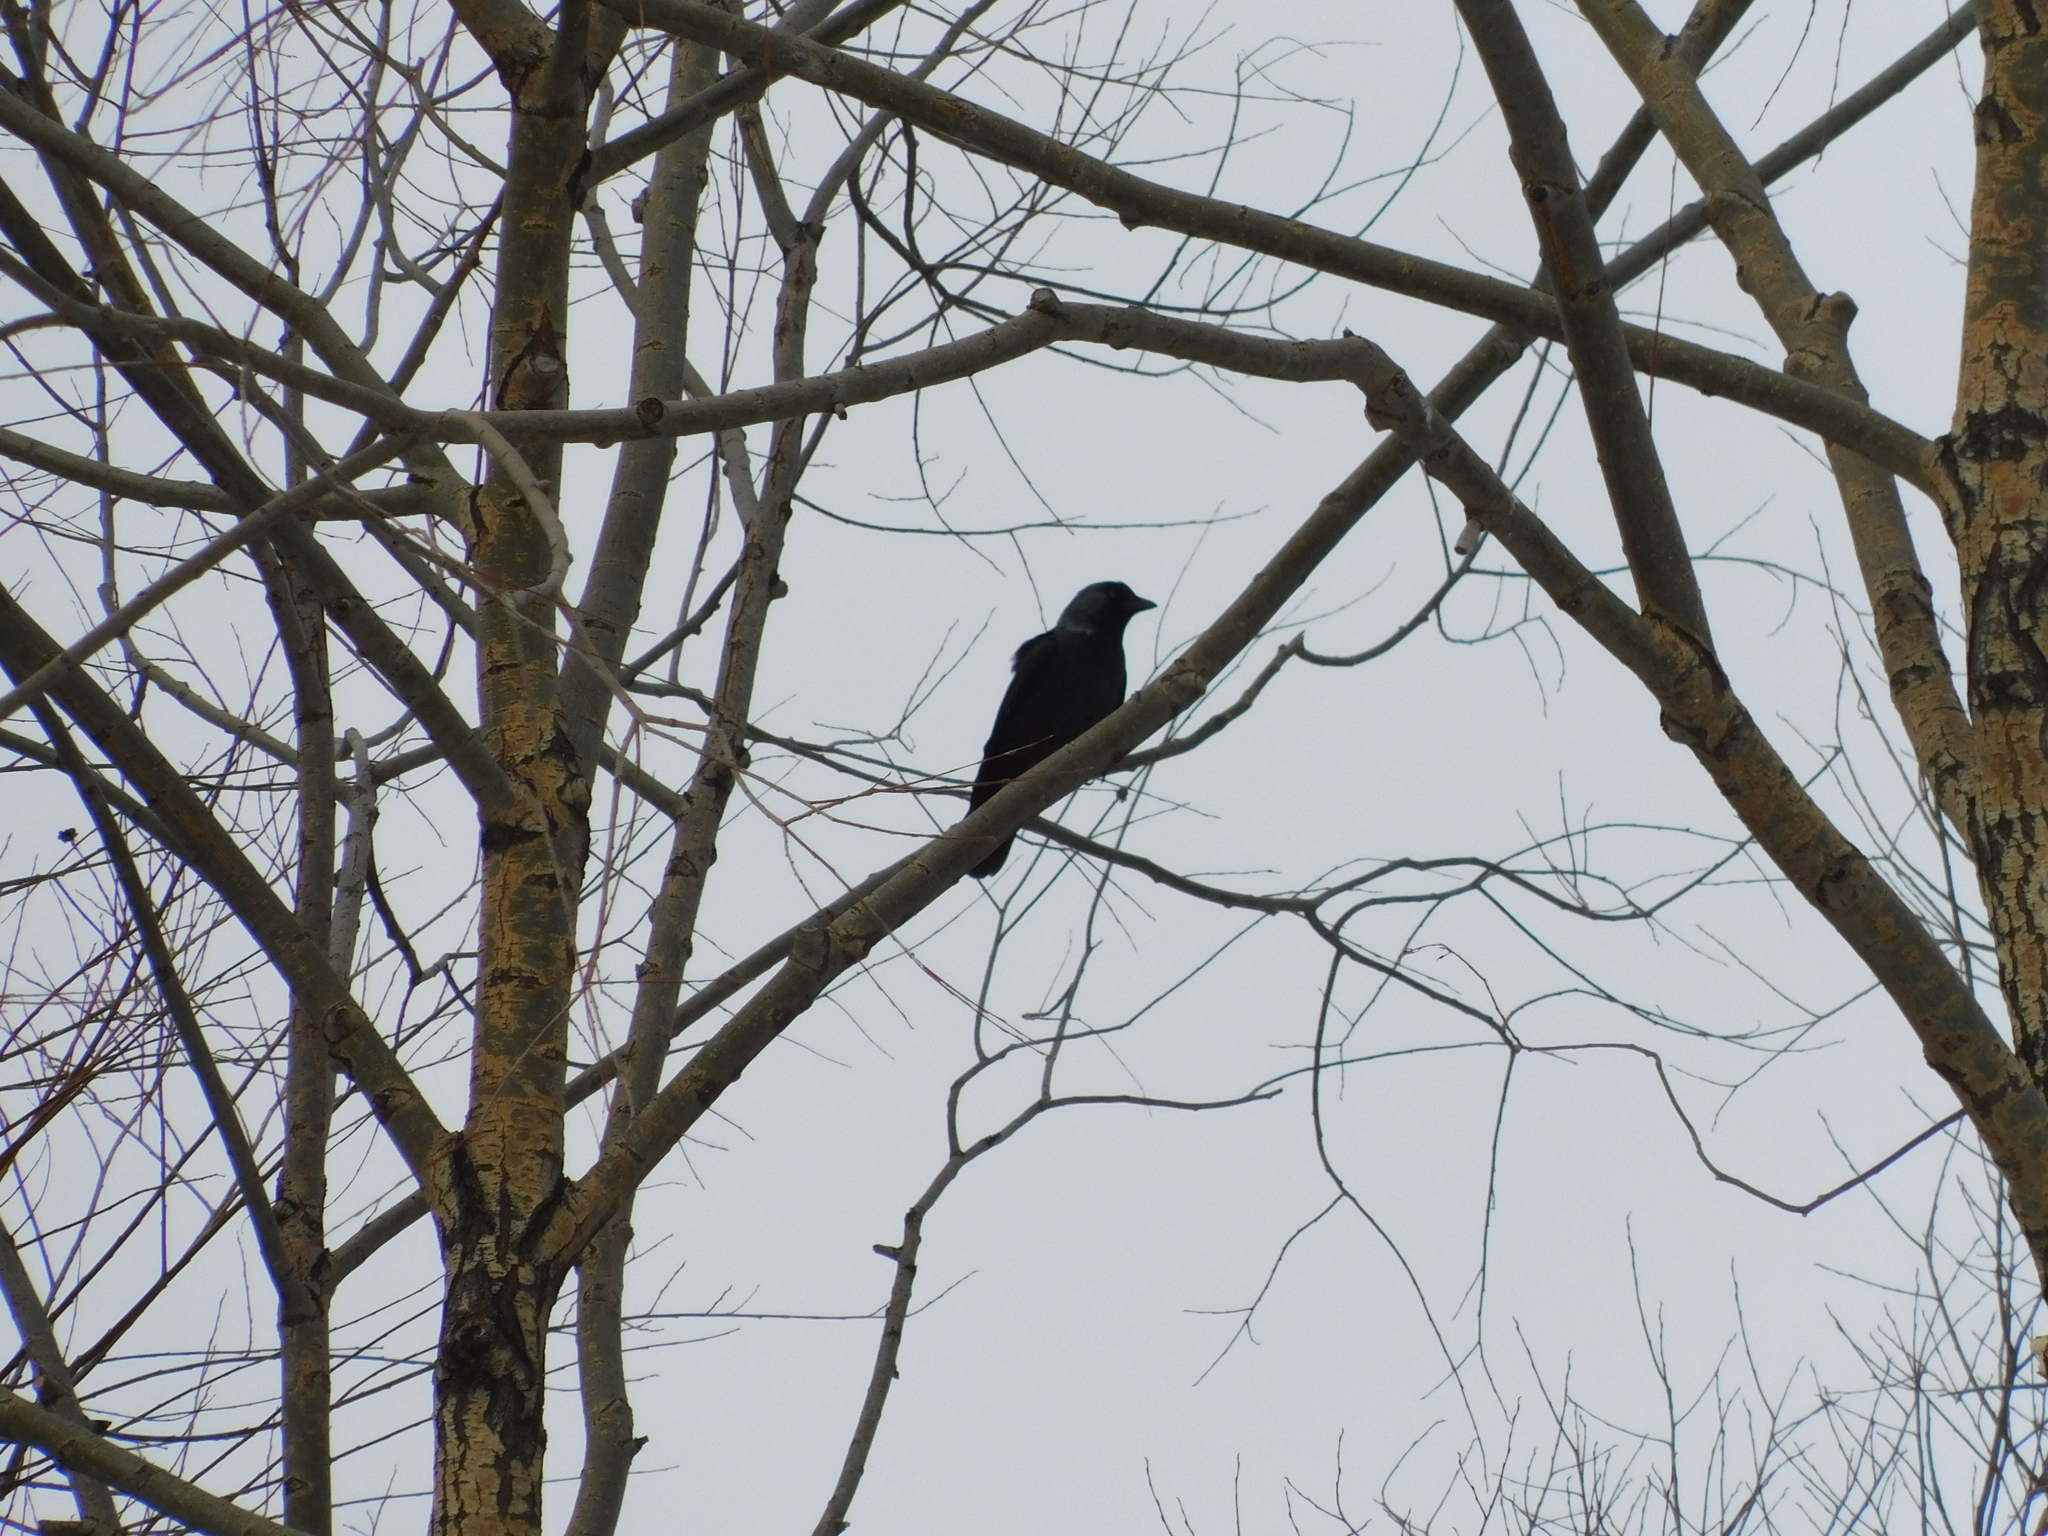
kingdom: Animalia
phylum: Chordata
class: Aves
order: Passeriformes
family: Corvidae
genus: Coloeus
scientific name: Coloeus monedula
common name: Western jackdaw
